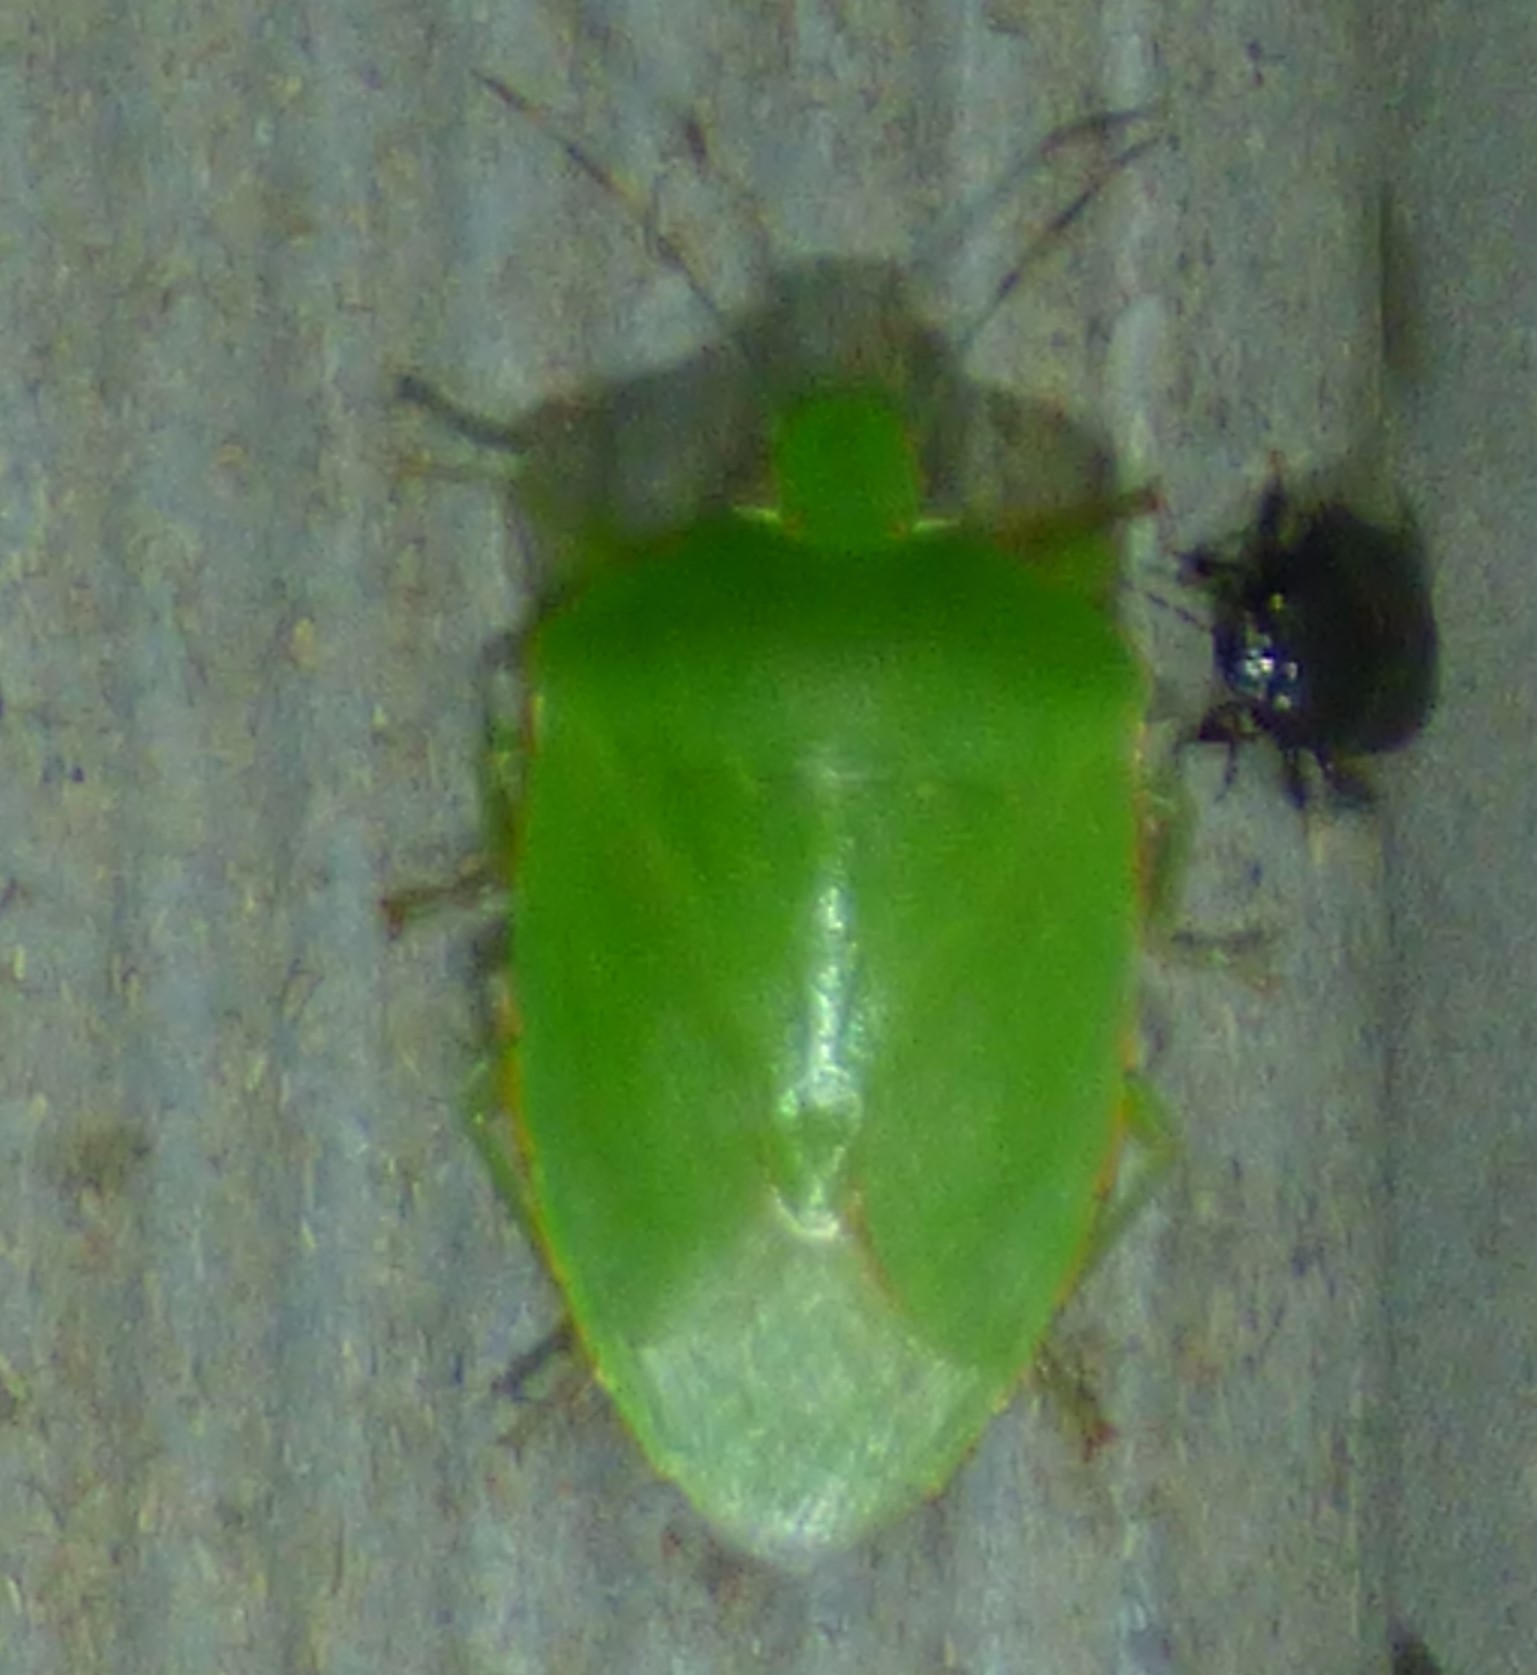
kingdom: Animalia
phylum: Arthropoda
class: Insecta
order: Hemiptera
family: Pentatomidae
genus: Chinavia
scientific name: Chinavia hilaris
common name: Green stink bug
